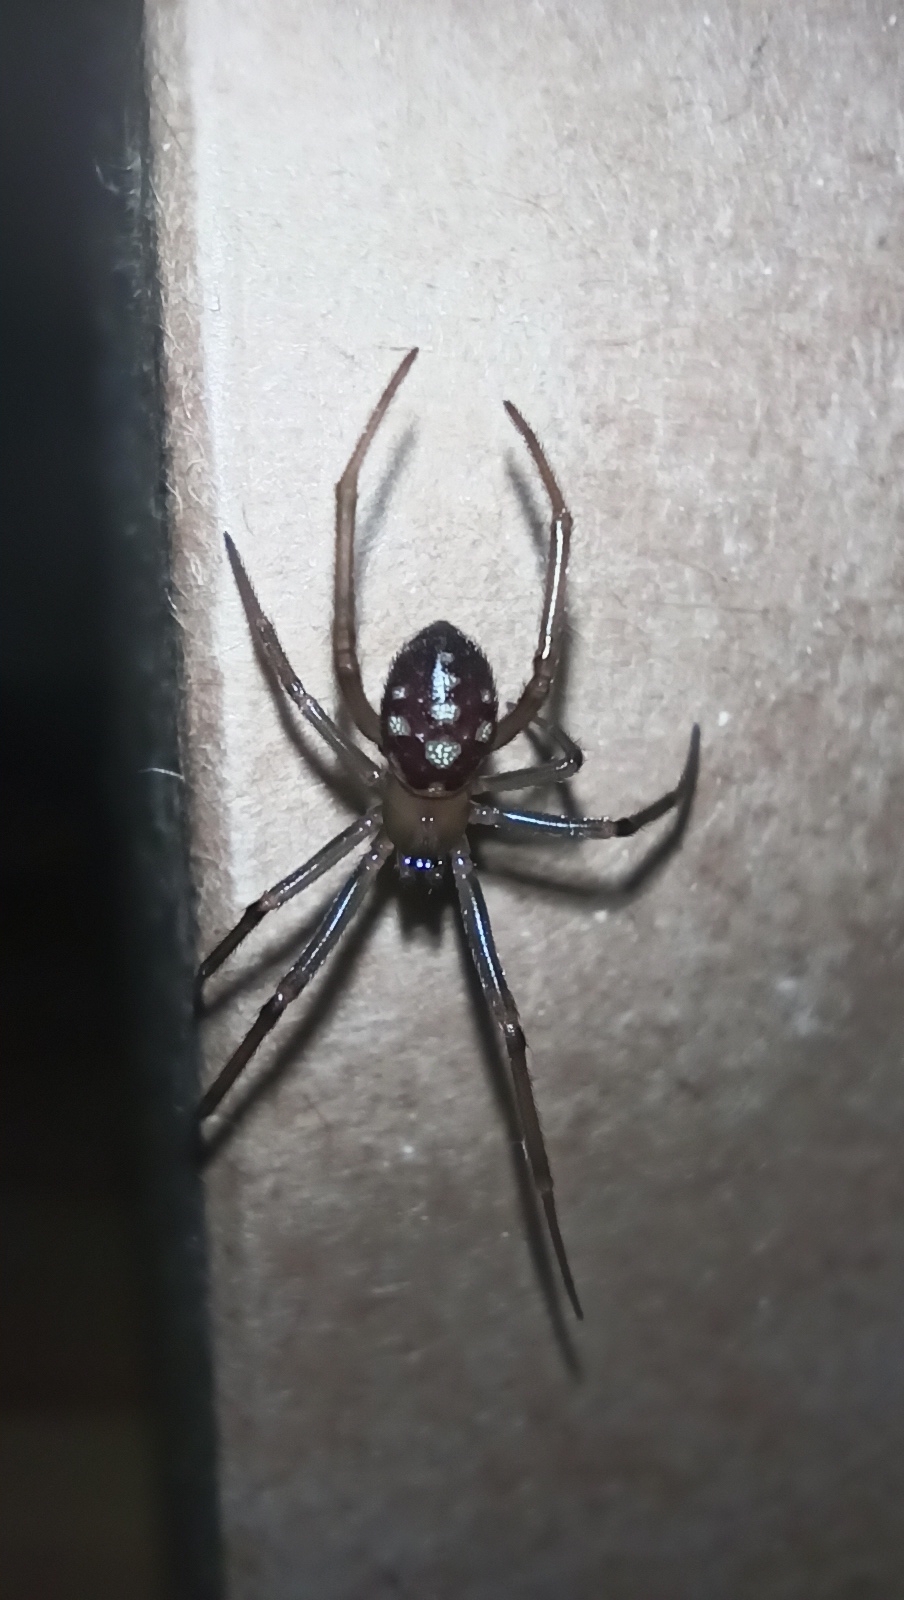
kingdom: Animalia
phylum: Arthropoda
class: Arachnida
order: Araneae
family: Theridiidae
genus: Steatoda
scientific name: Steatoda grossa
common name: False black widow
